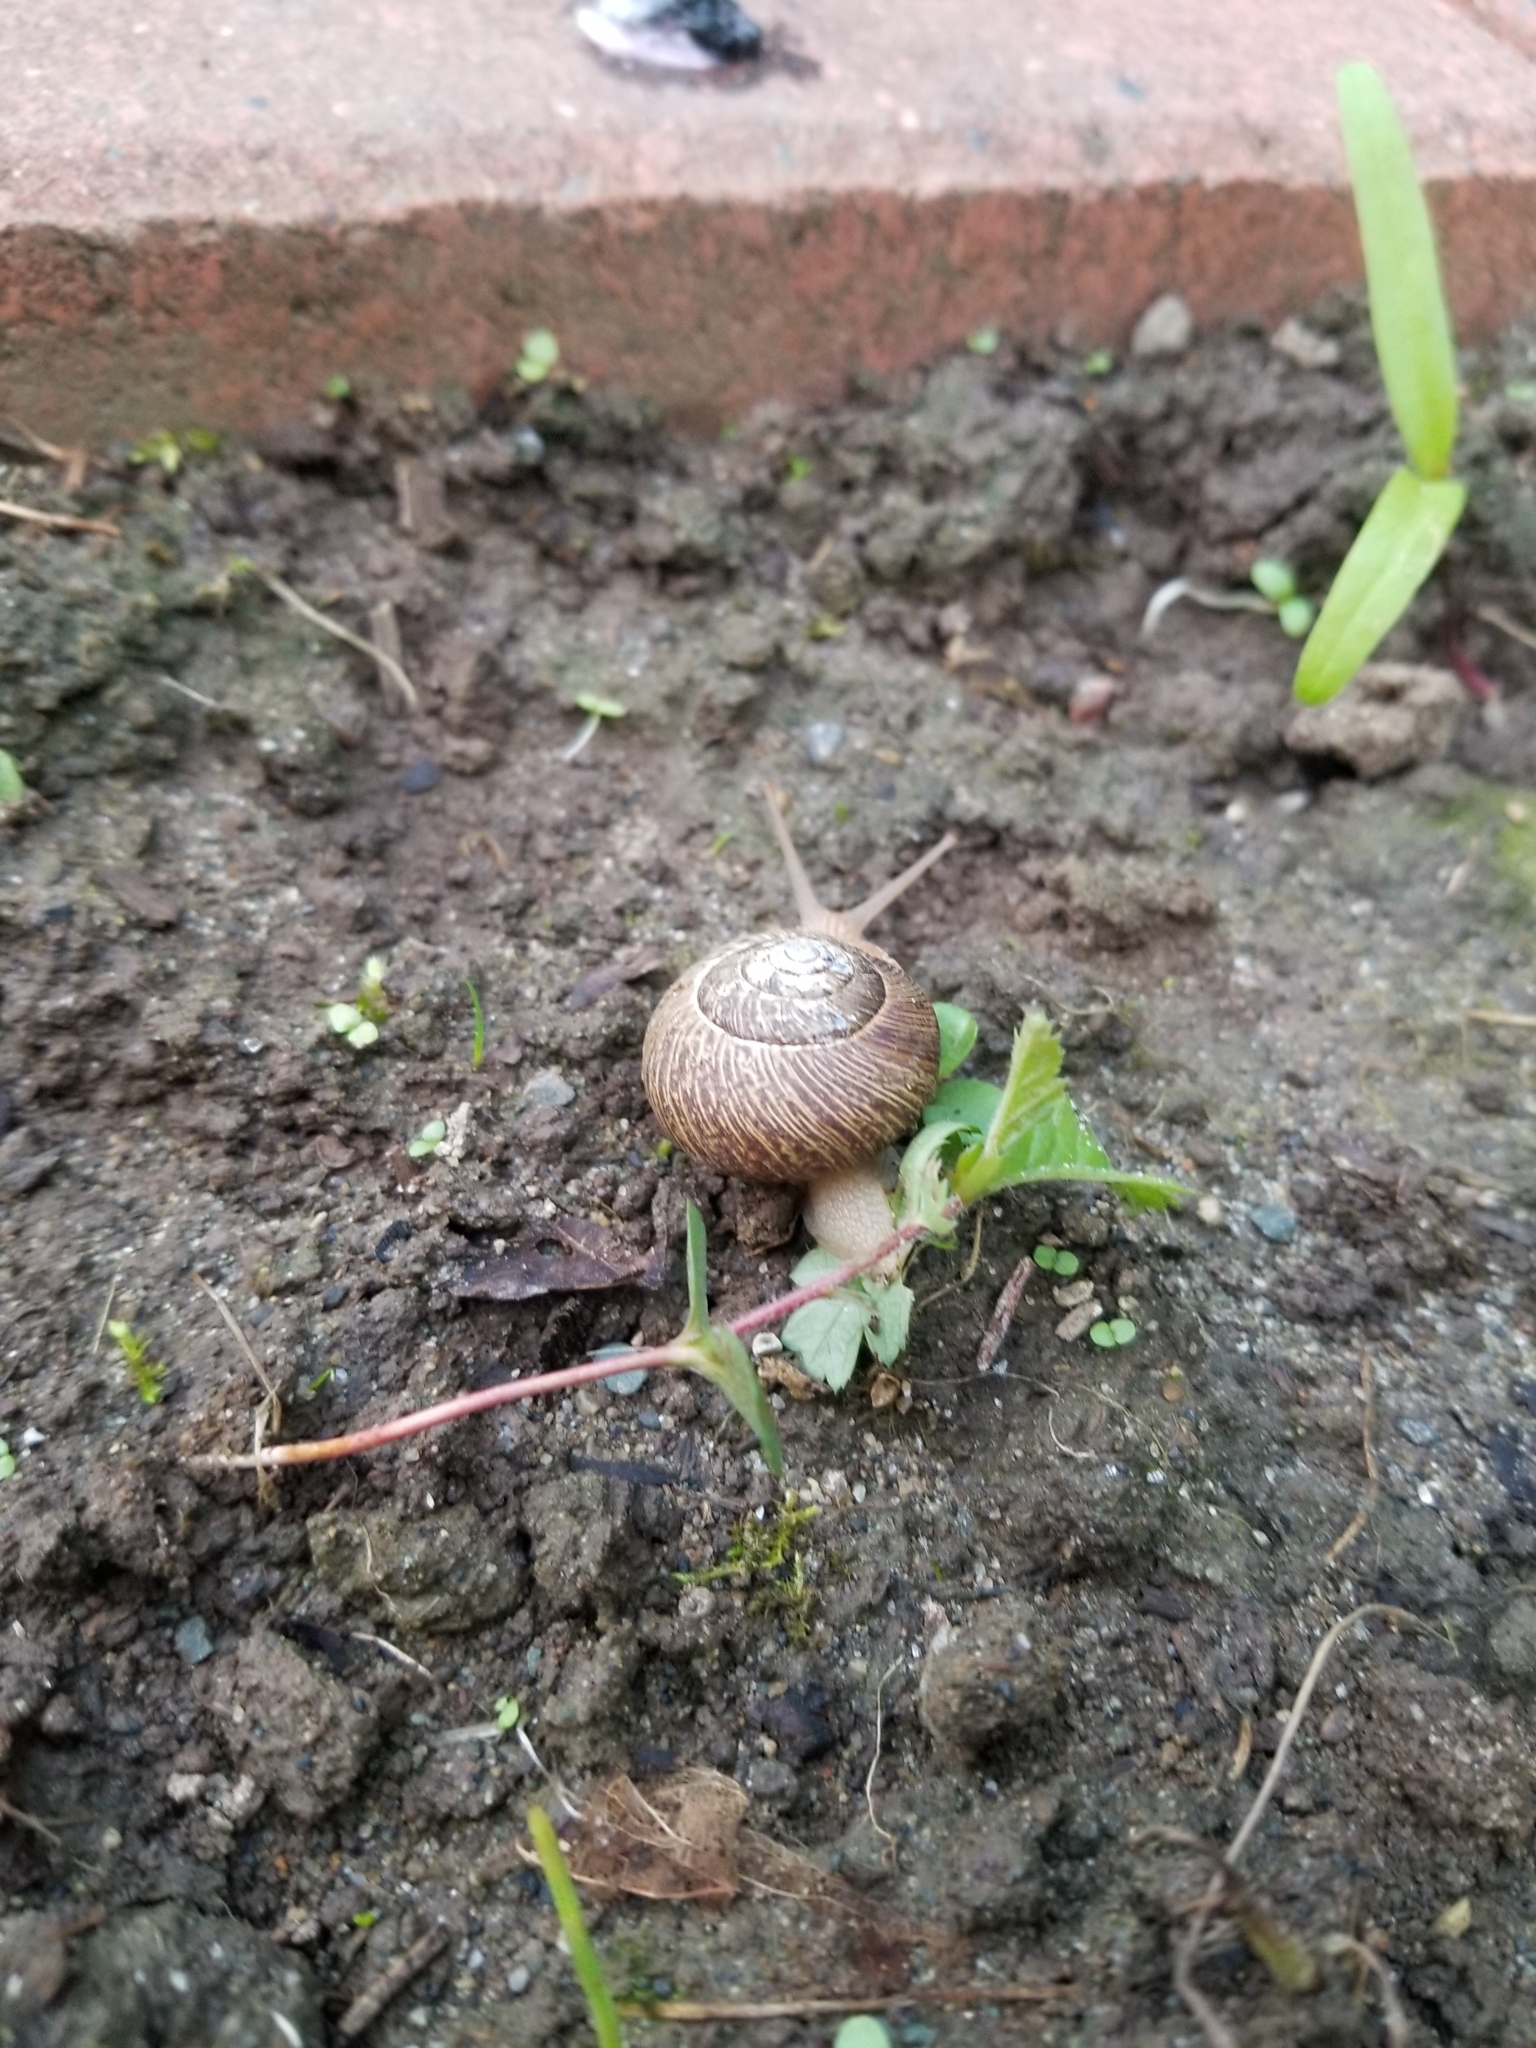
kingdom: Animalia
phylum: Mollusca
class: Gastropoda
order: Stylommatophora
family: Polygyridae
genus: Allogona
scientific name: Allogona townsendiana
